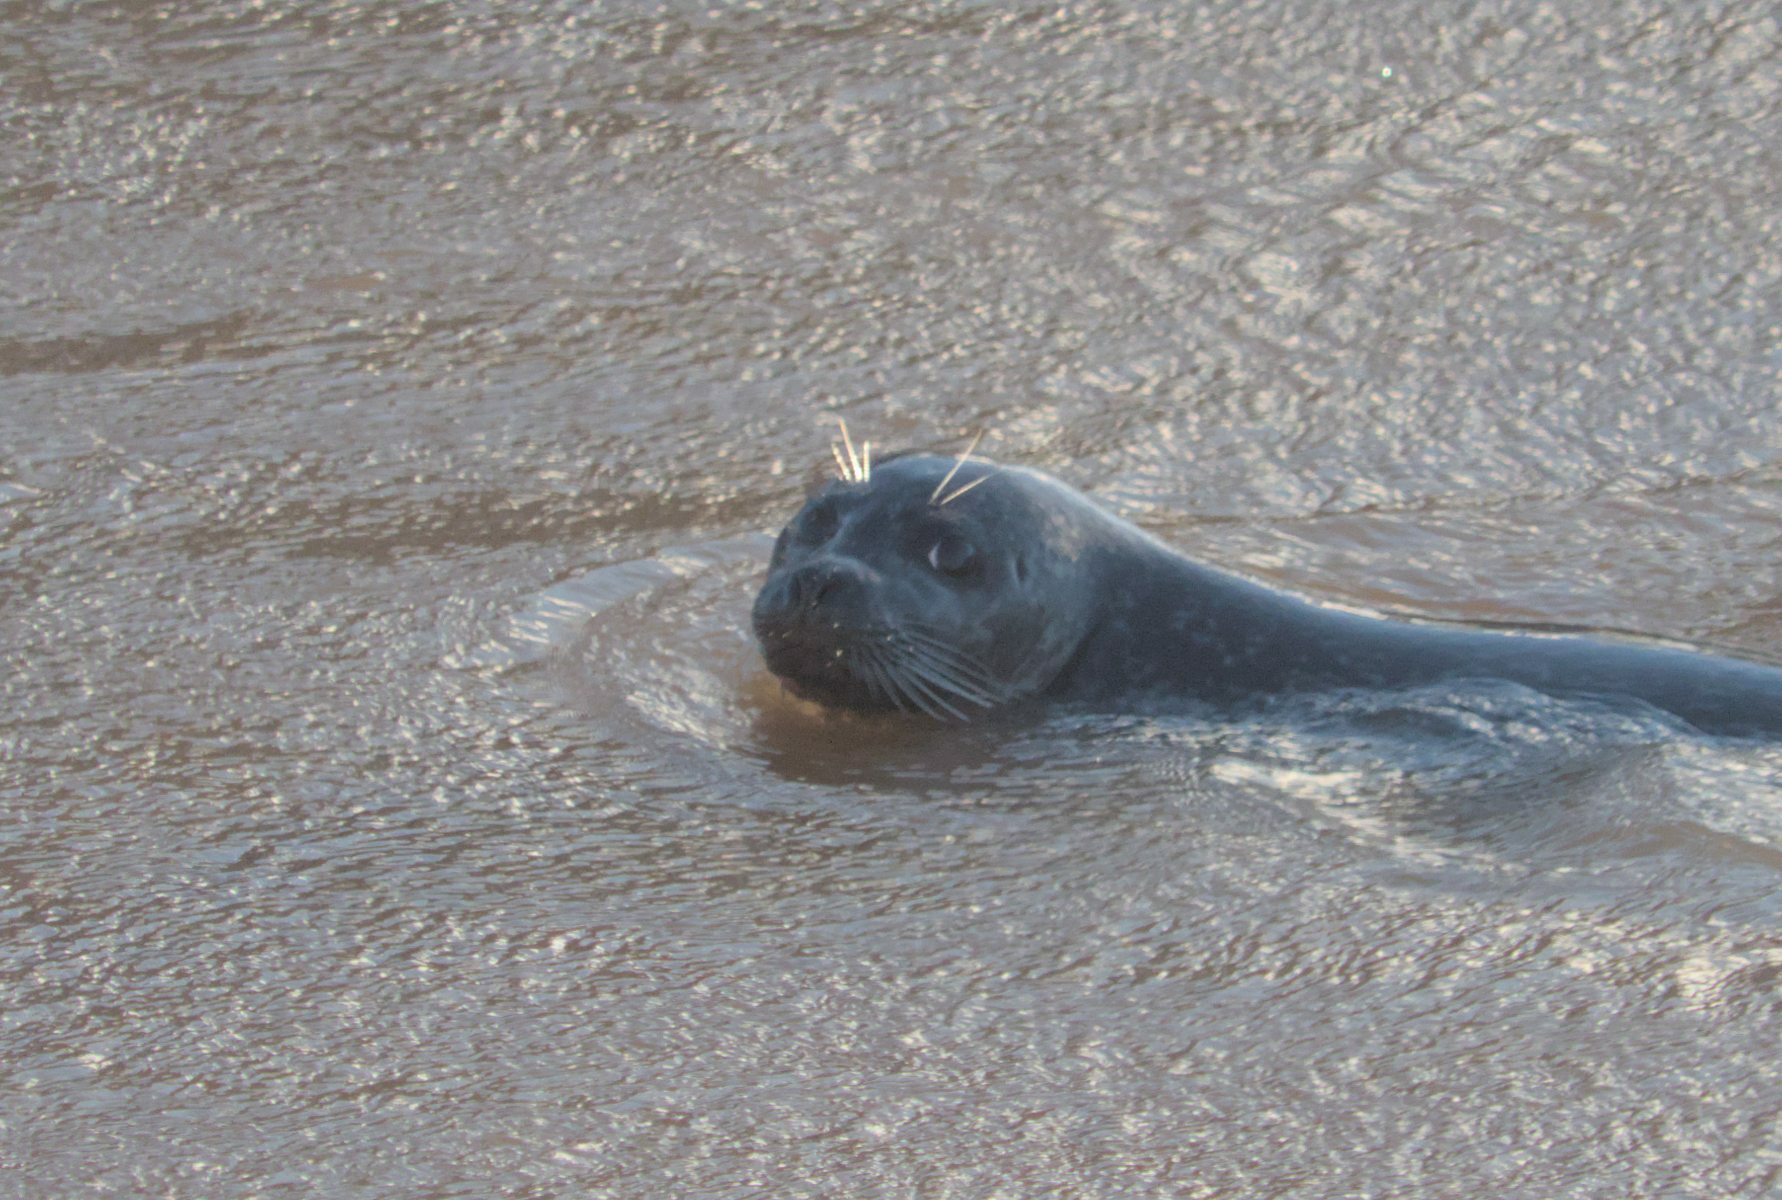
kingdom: Animalia
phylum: Chordata
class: Mammalia
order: Carnivora
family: Phocidae
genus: Phoca
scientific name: Phoca vitulina
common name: Harbor seal
